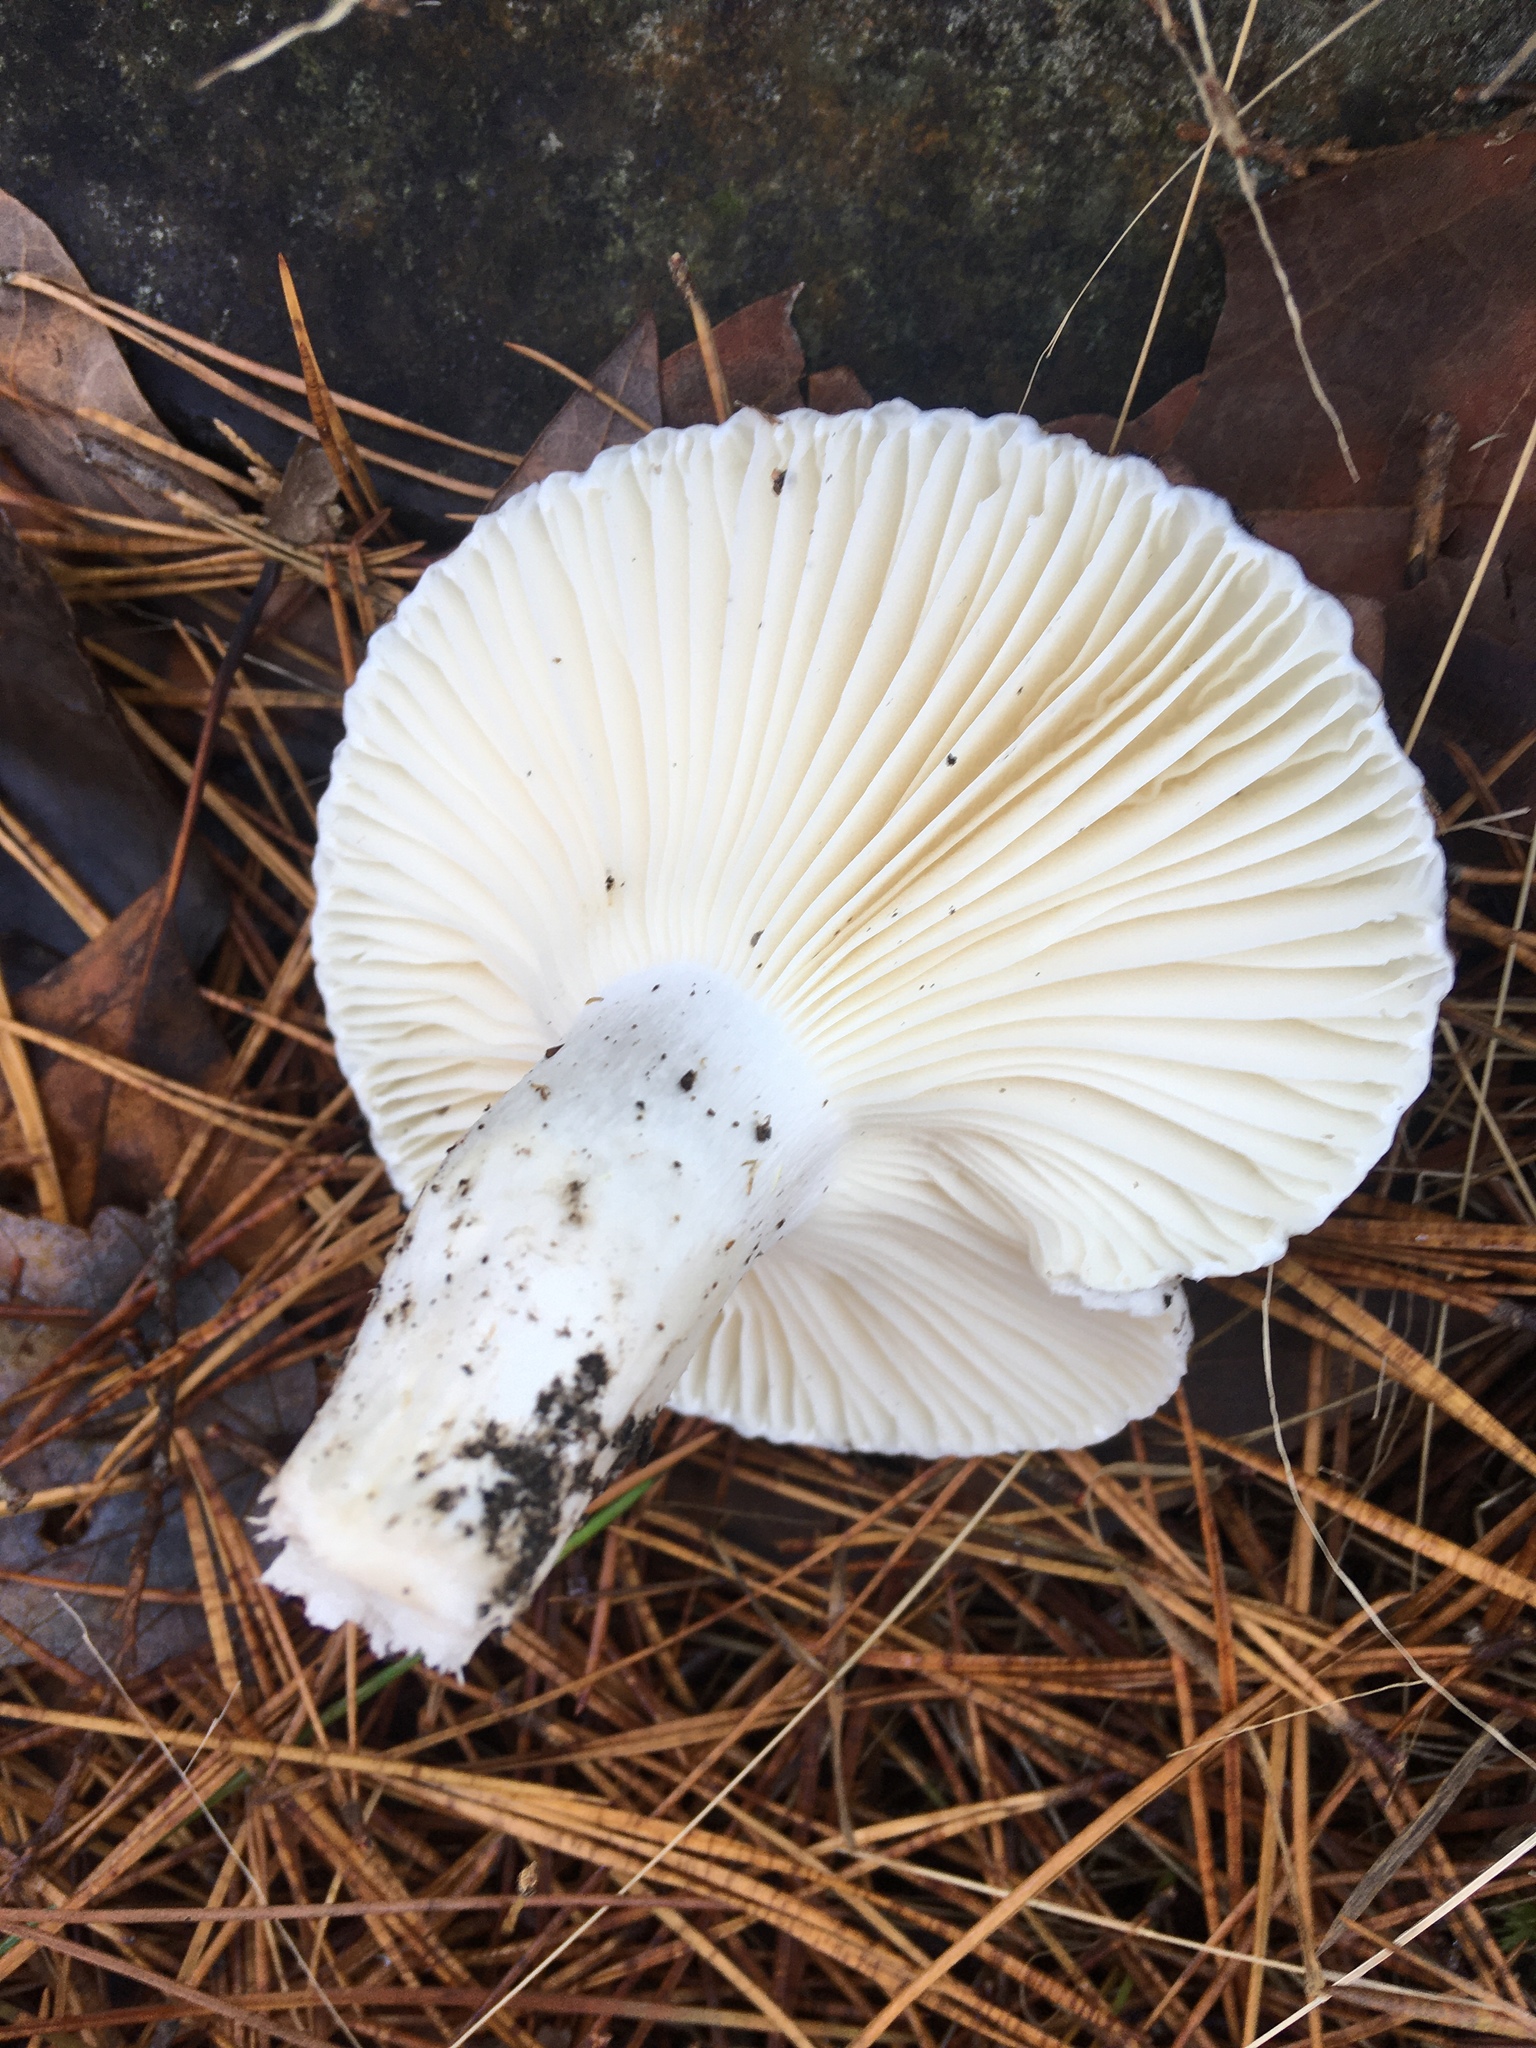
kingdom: Fungi
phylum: Basidiomycota
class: Agaricomycetes
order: Agaricales
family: Hygrophoraceae
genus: Hygrophorus
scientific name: Hygrophorus ponderatus
